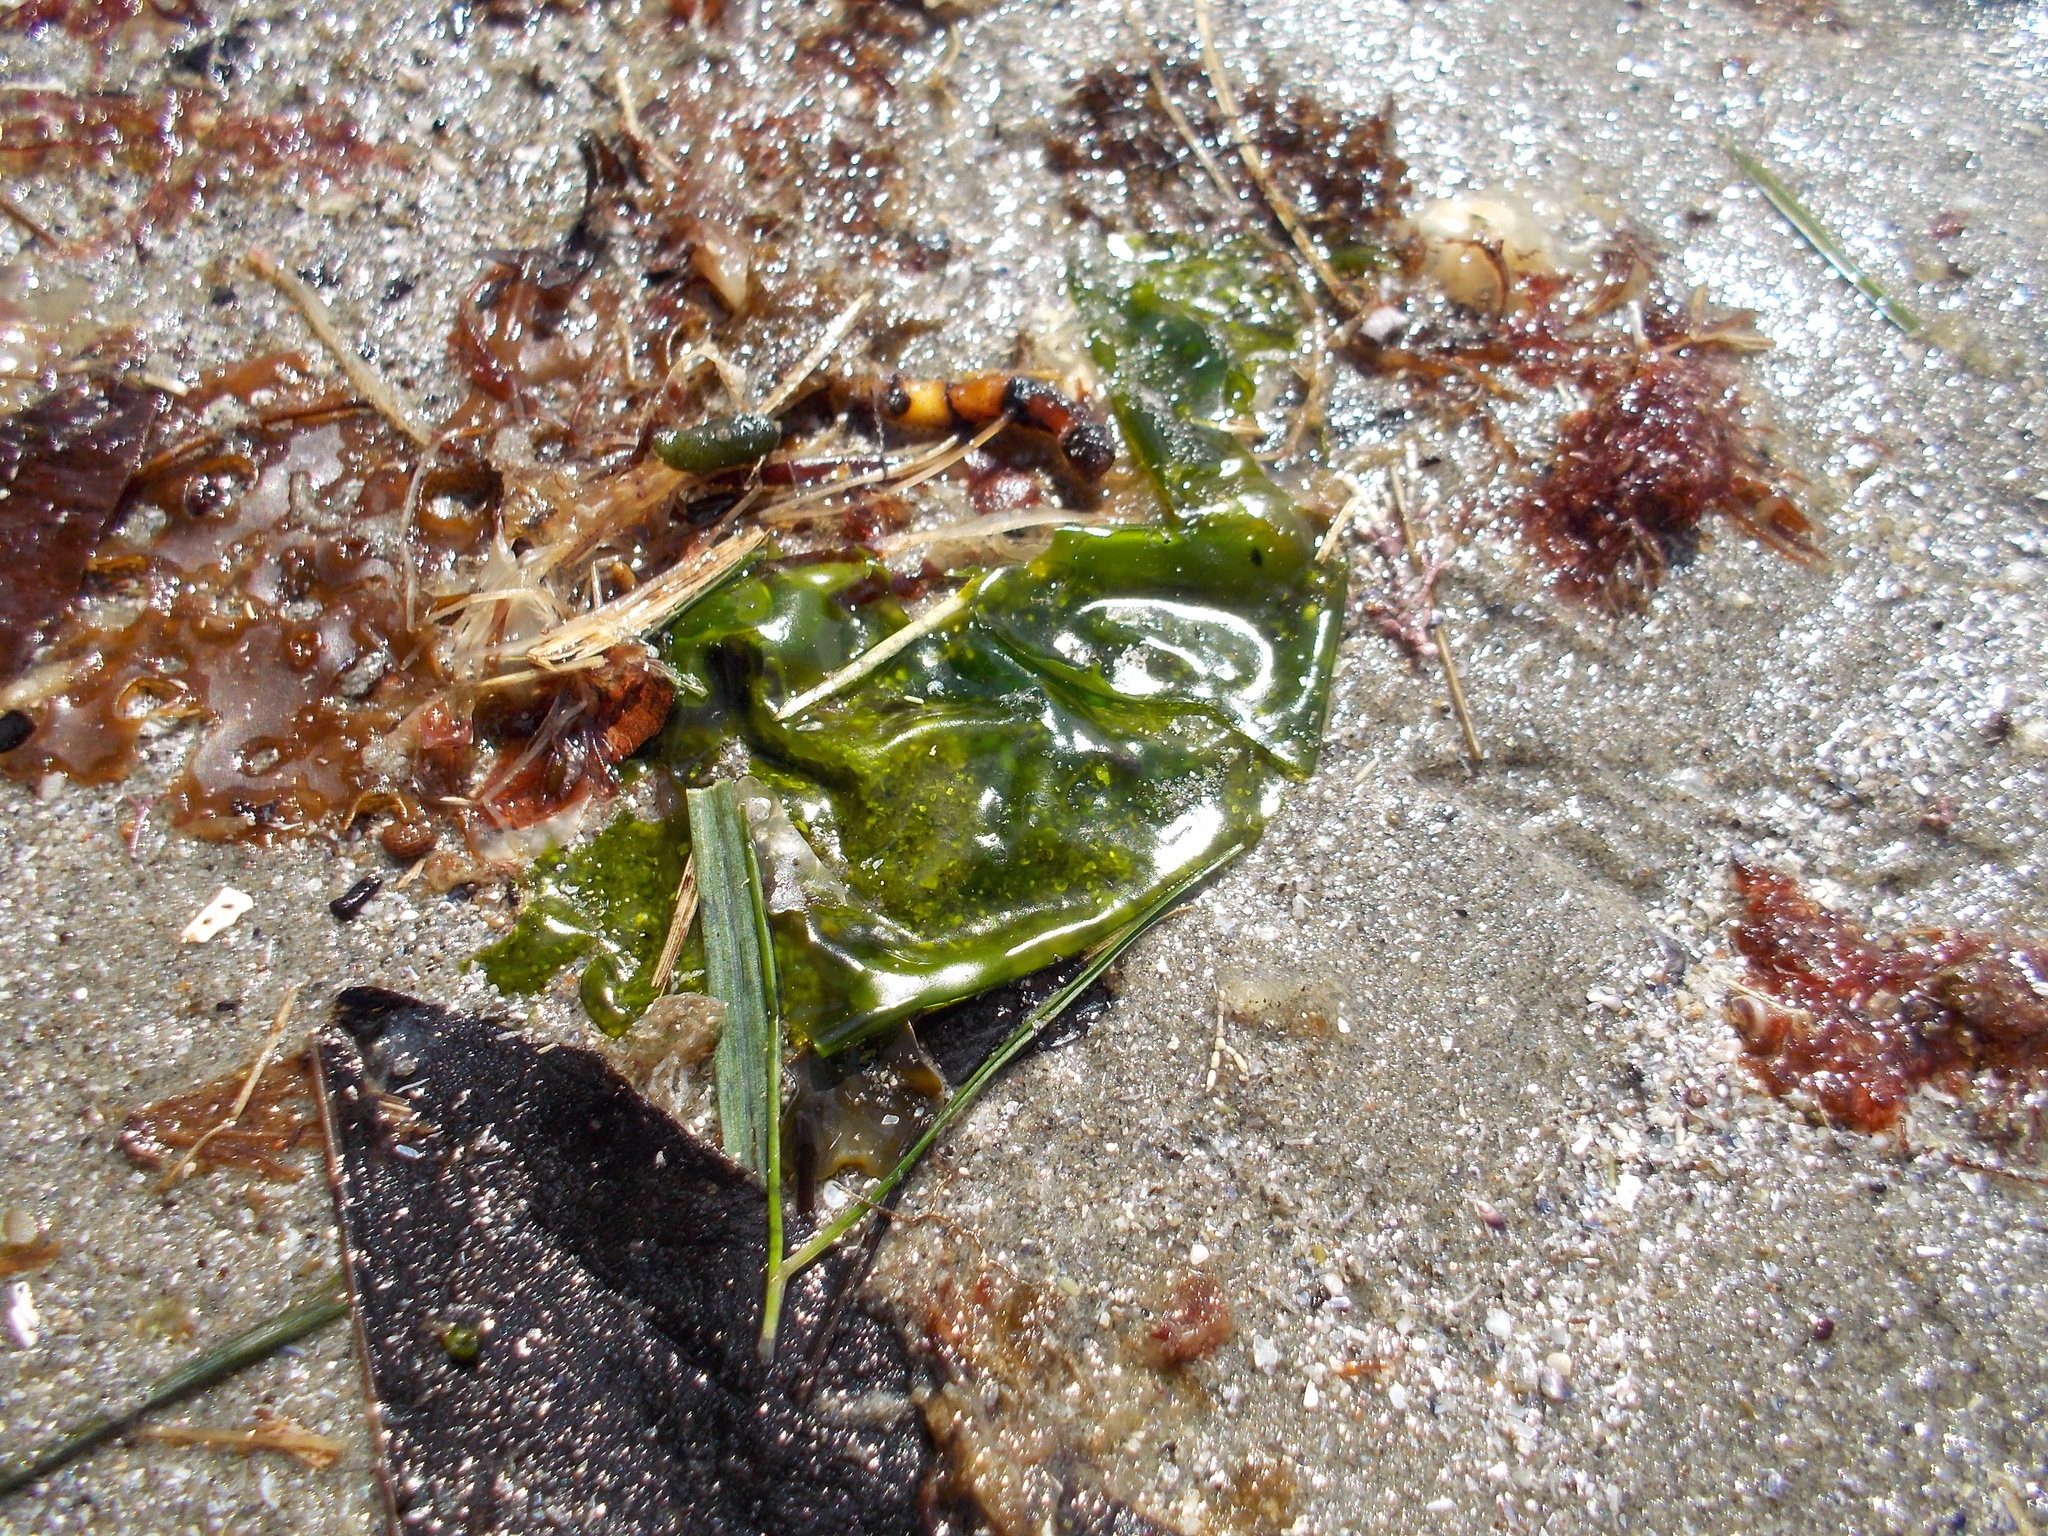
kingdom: Plantae
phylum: Chlorophyta
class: Ulvophyceae
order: Ulvales
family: Ulvaceae
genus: Ulva
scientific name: Ulva lactuca
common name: Sea lettuce
